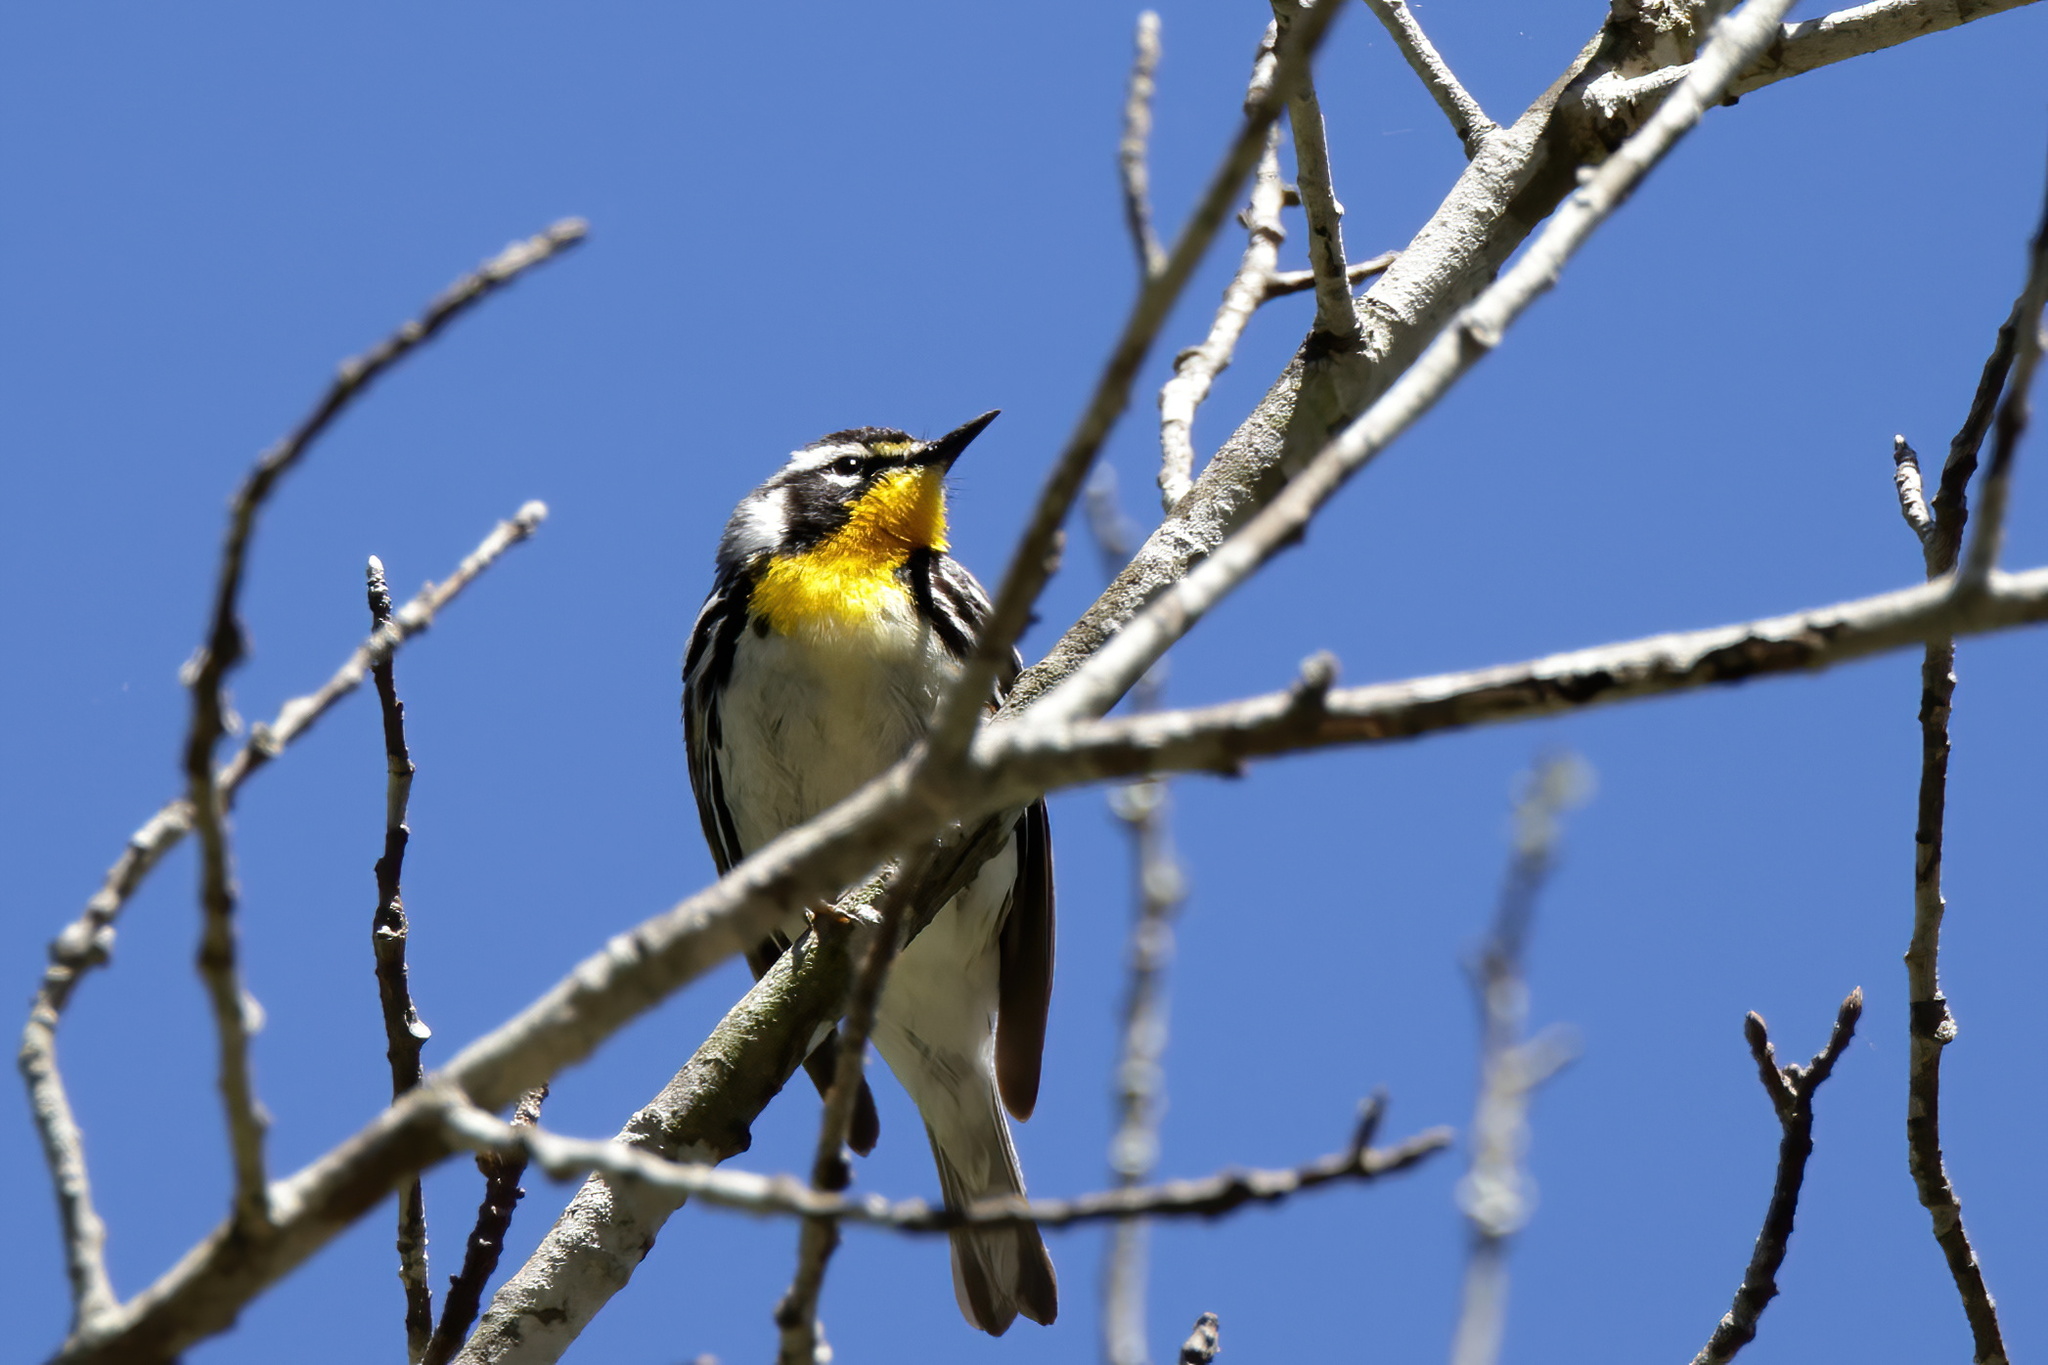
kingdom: Animalia
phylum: Chordata
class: Aves
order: Passeriformes
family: Parulidae
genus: Setophaga
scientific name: Setophaga dominica
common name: Yellow-throated warbler
